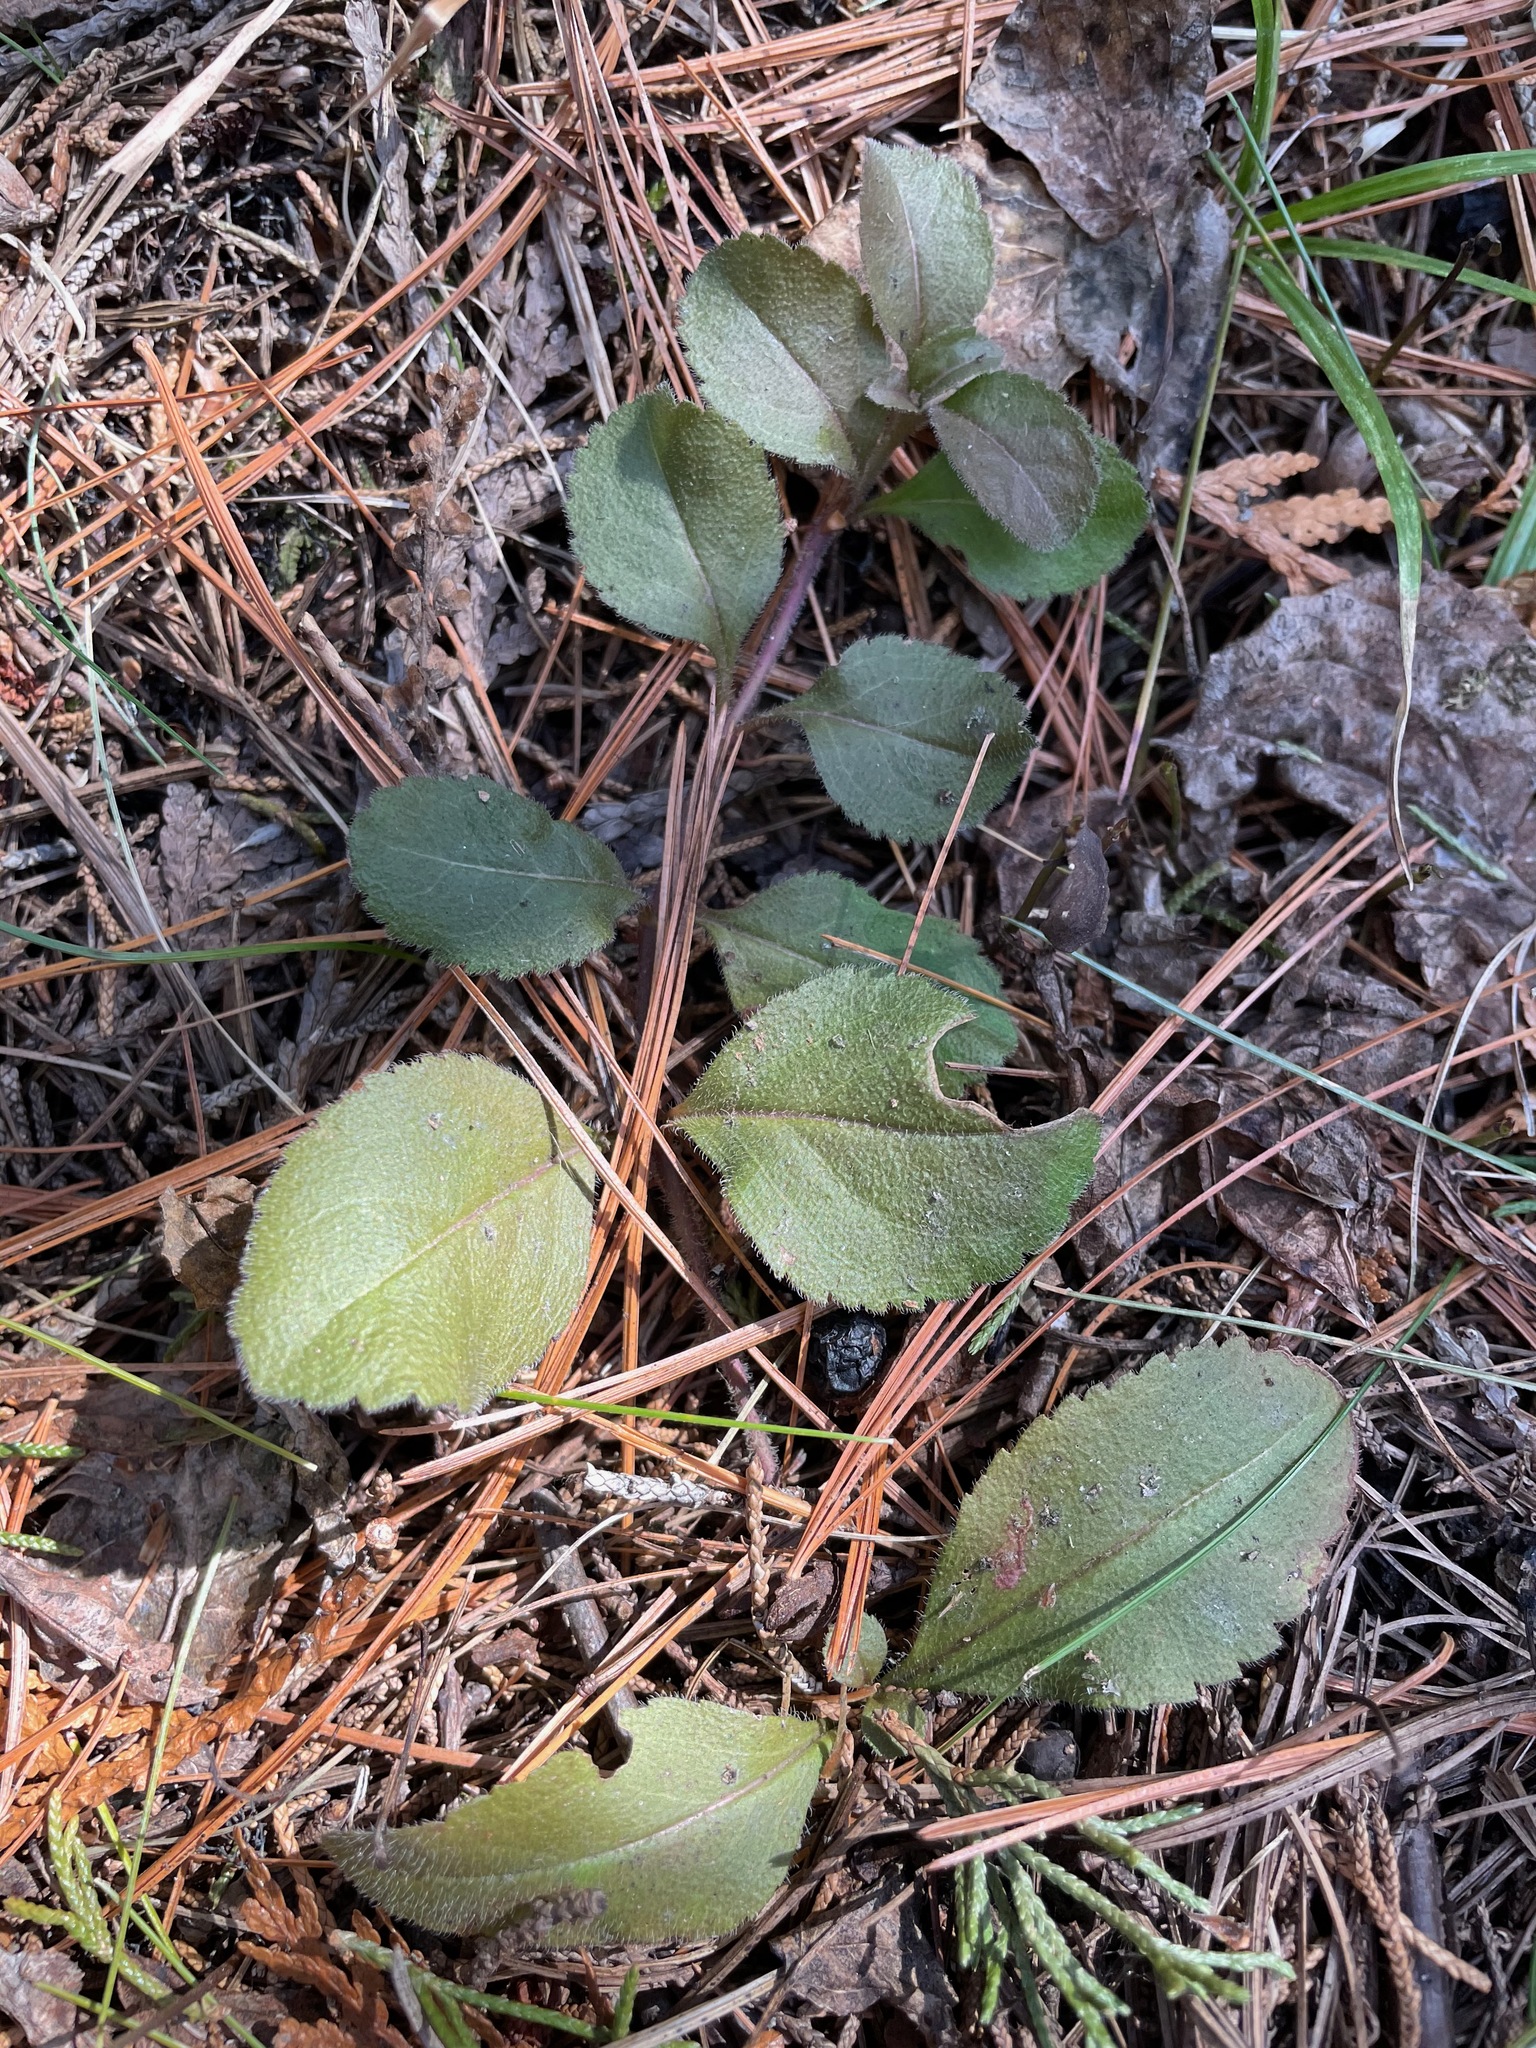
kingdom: Plantae
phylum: Tracheophyta
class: Magnoliopsida
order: Lamiales
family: Plantaginaceae
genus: Veronica
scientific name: Veronica officinalis
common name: Common speedwell
